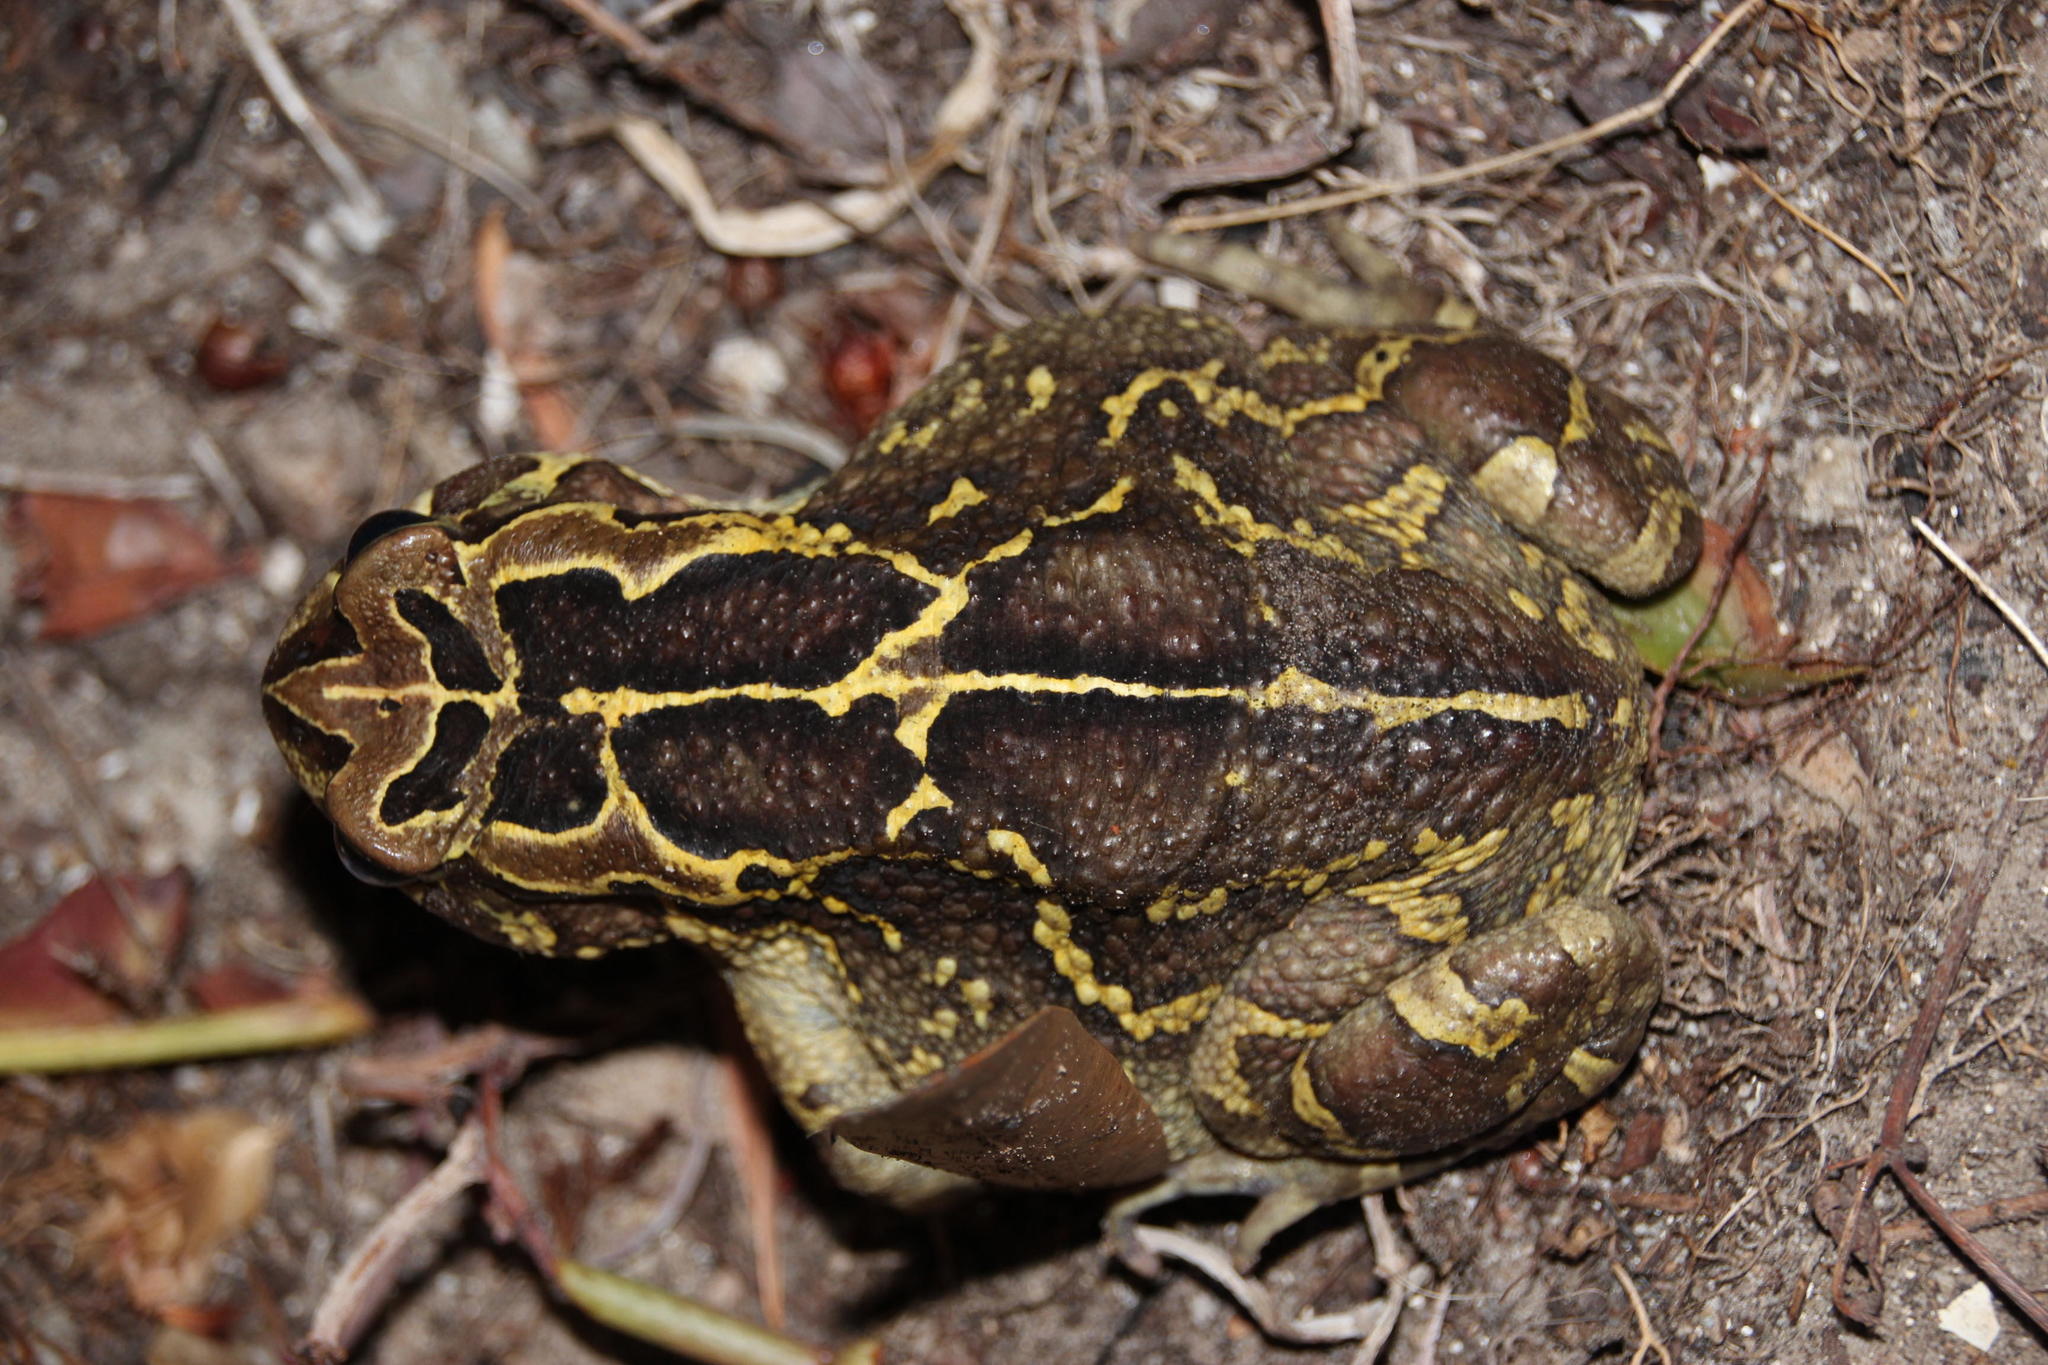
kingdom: Animalia
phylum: Chordata
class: Amphibia
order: Anura
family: Bufonidae
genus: Sclerophrys
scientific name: Sclerophrys pantherina
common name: Panther toad
